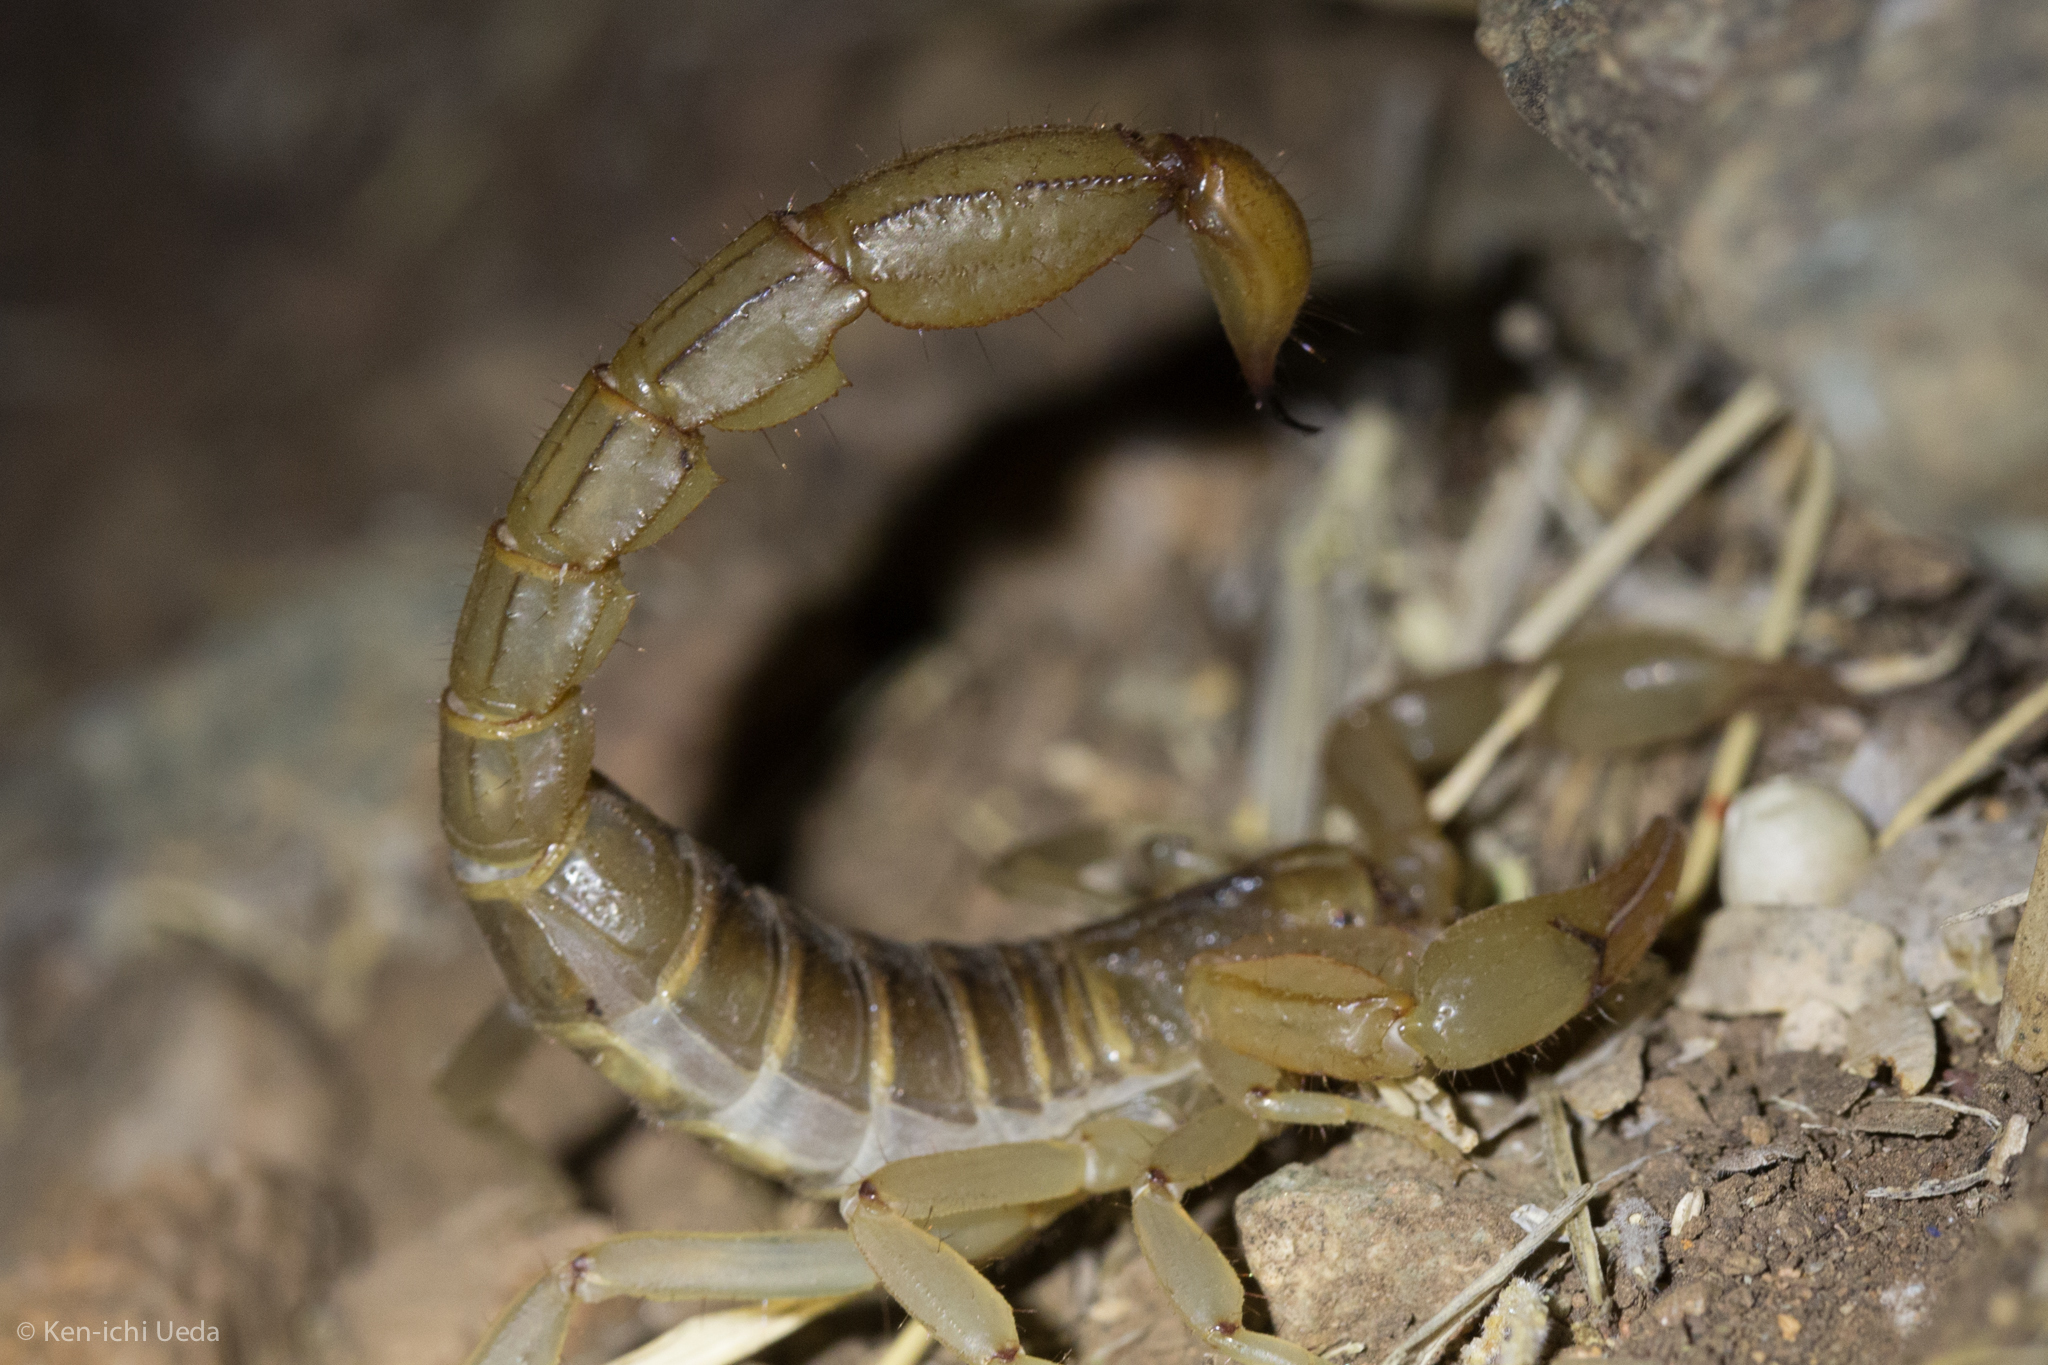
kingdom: Animalia
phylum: Arthropoda
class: Arachnida
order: Scorpiones
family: Vaejovidae
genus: Paravaejovis
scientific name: Paravaejovis spinigerus
